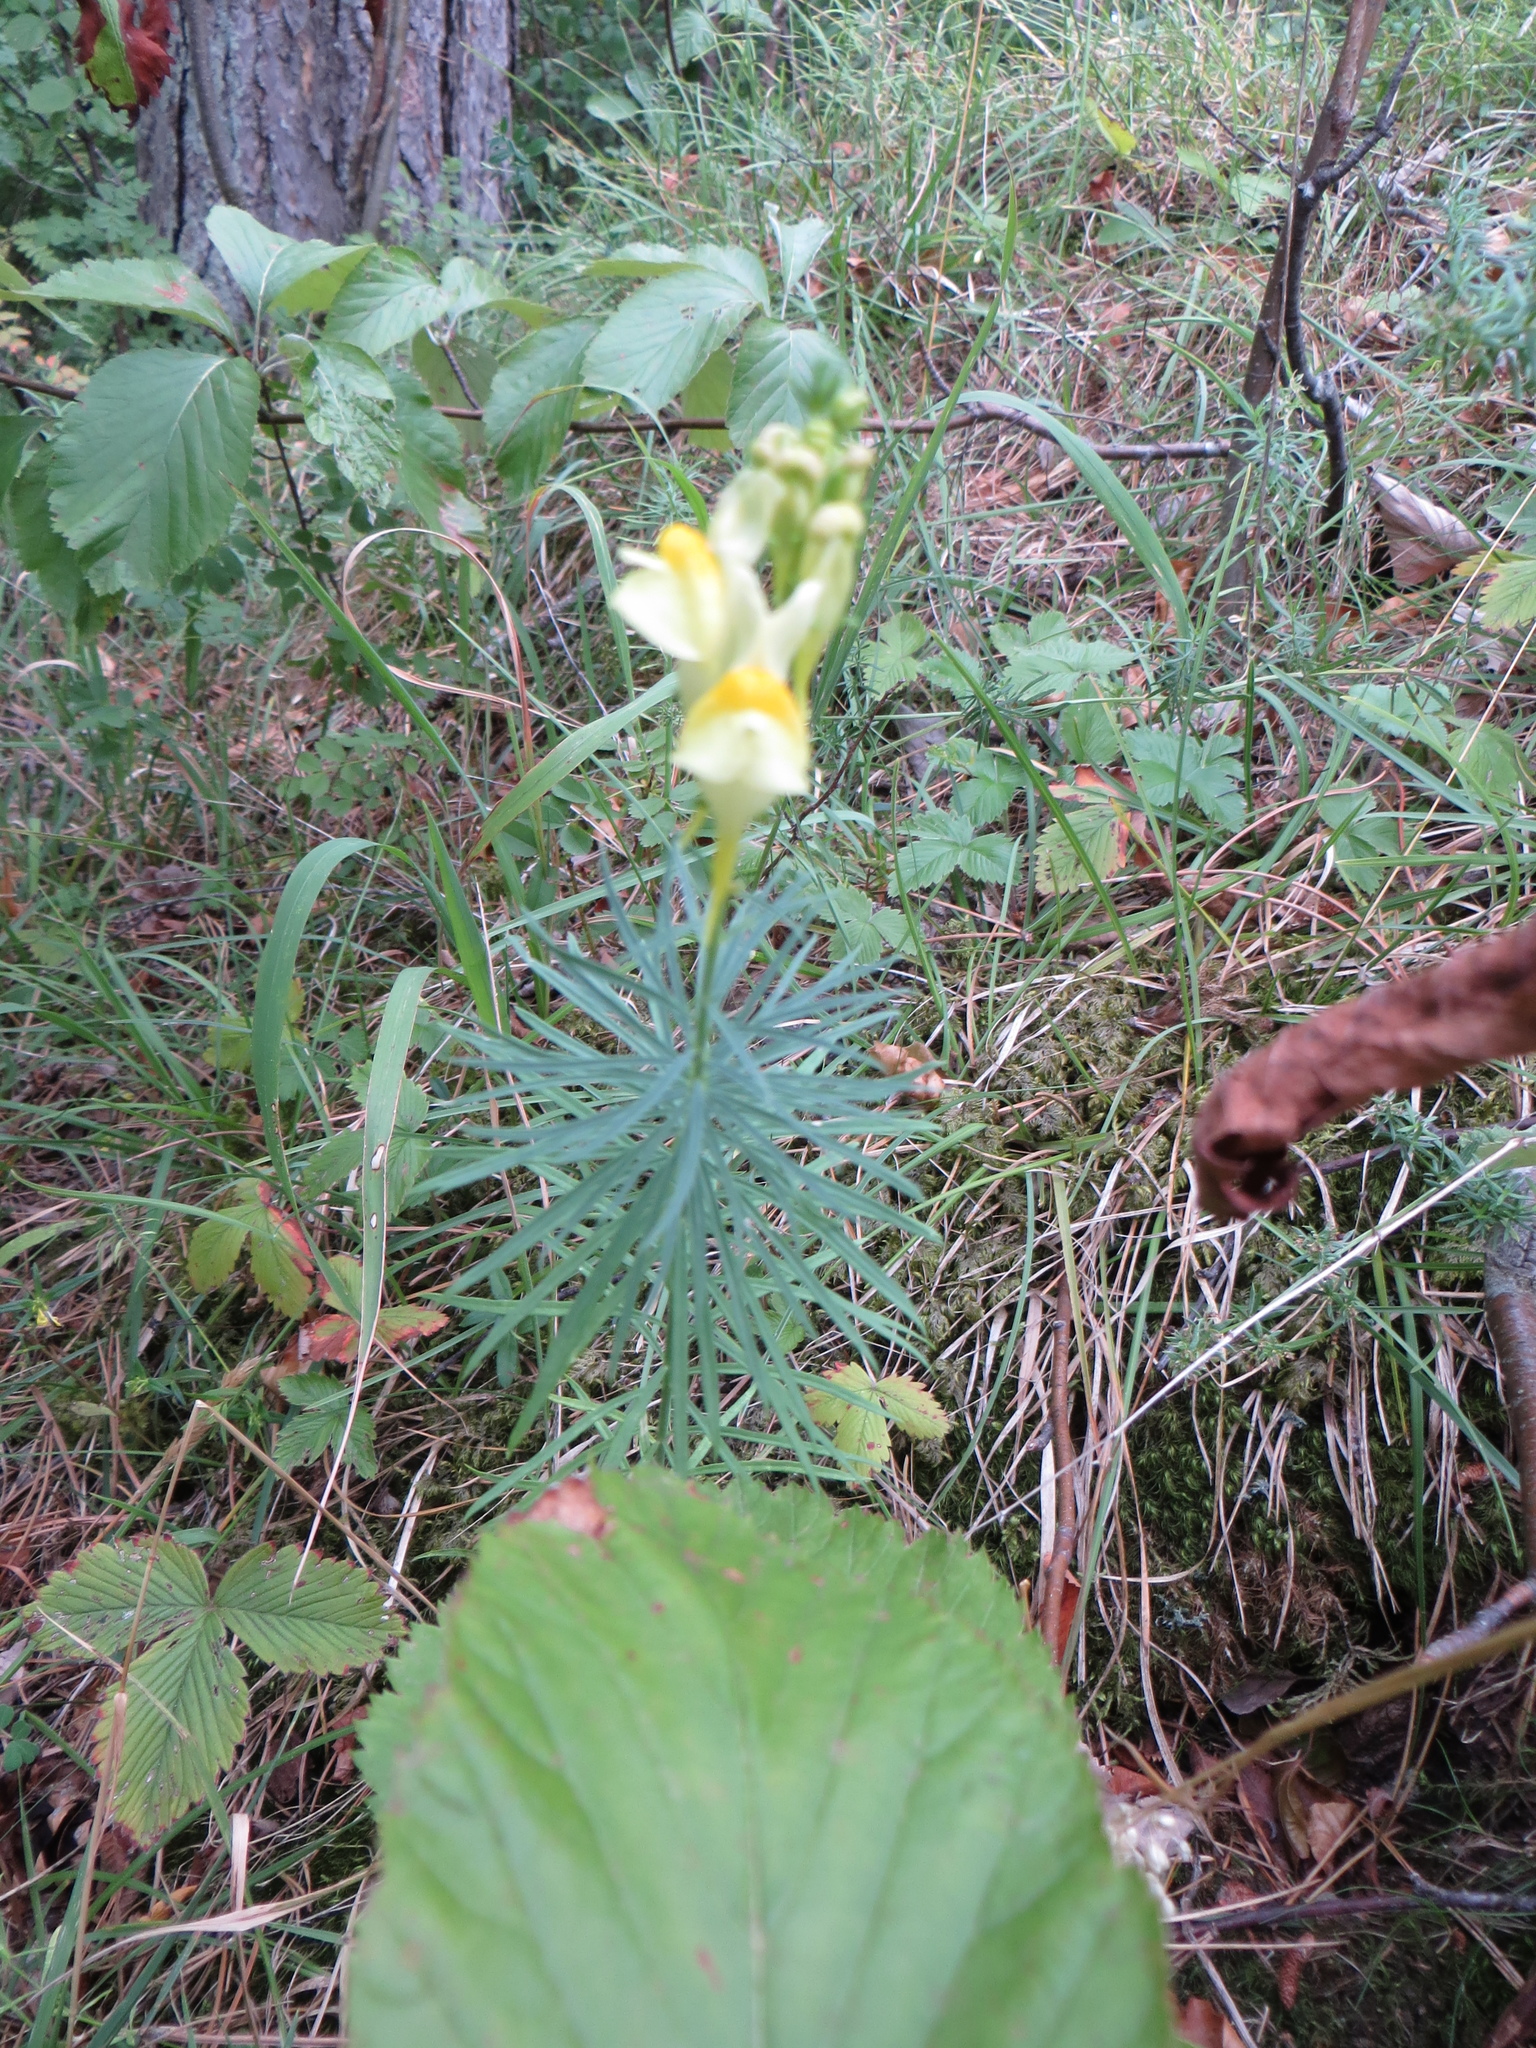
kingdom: Plantae
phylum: Tracheophyta
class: Magnoliopsida
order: Lamiales
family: Plantaginaceae
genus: Linaria
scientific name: Linaria vulgaris
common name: Butter and eggs
